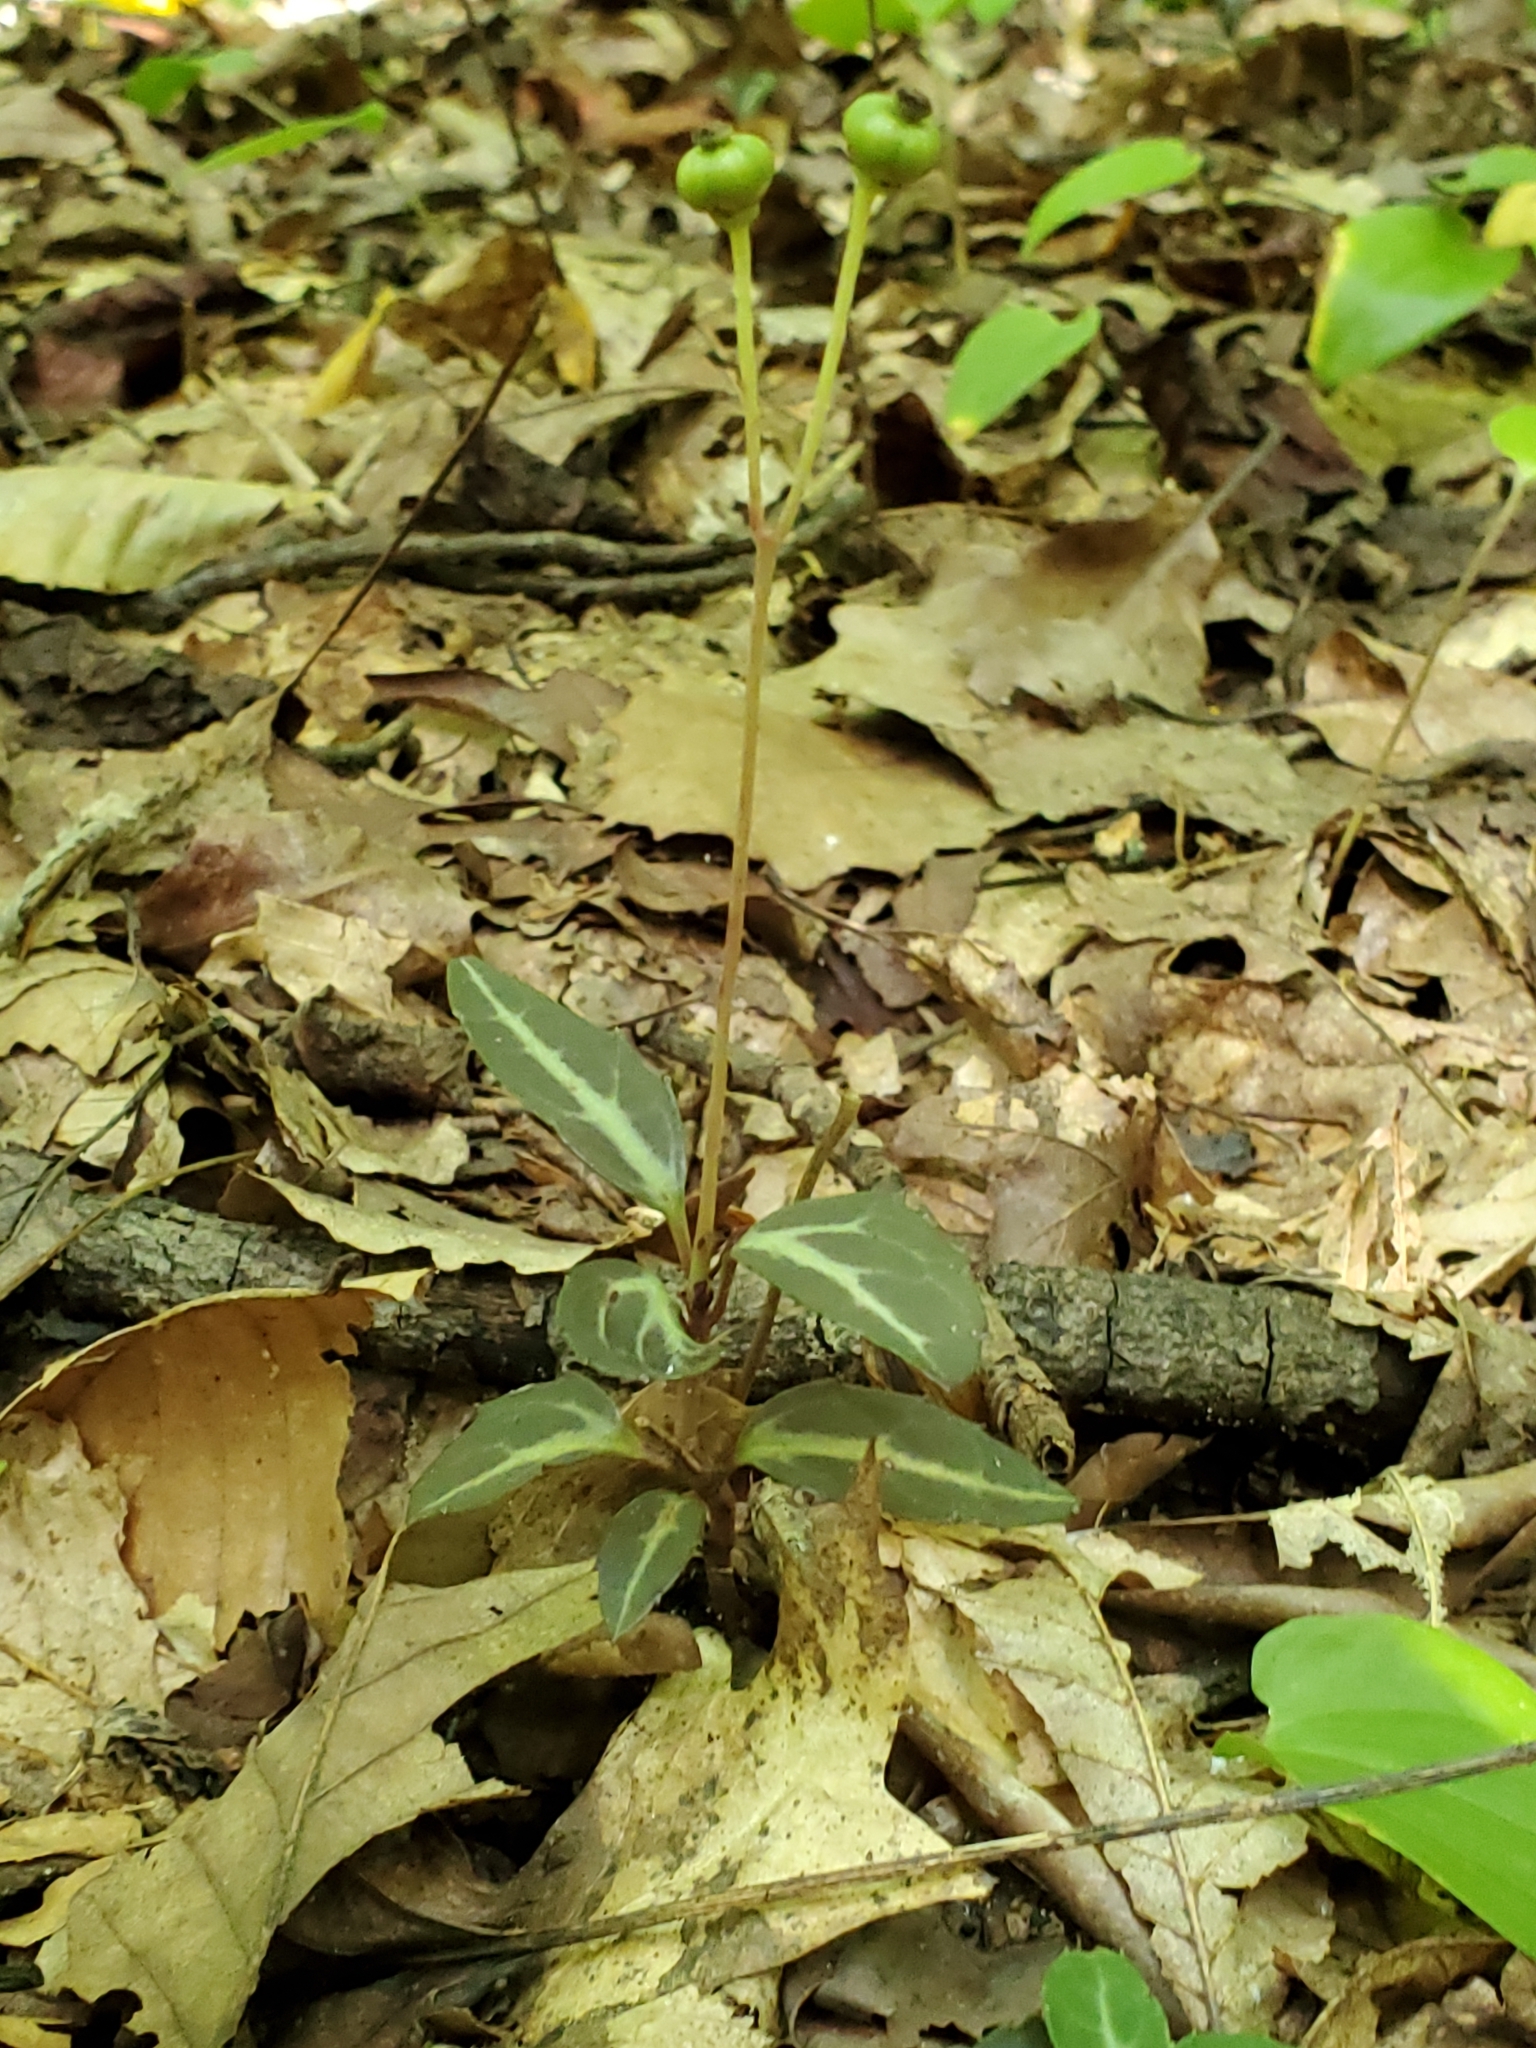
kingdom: Plantae
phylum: Tracheophyta
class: Magnoliopsida
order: Ericales
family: Ericaceae
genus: Chimaphila
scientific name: Chimaphila maculata
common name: Spotted pipsissewa
